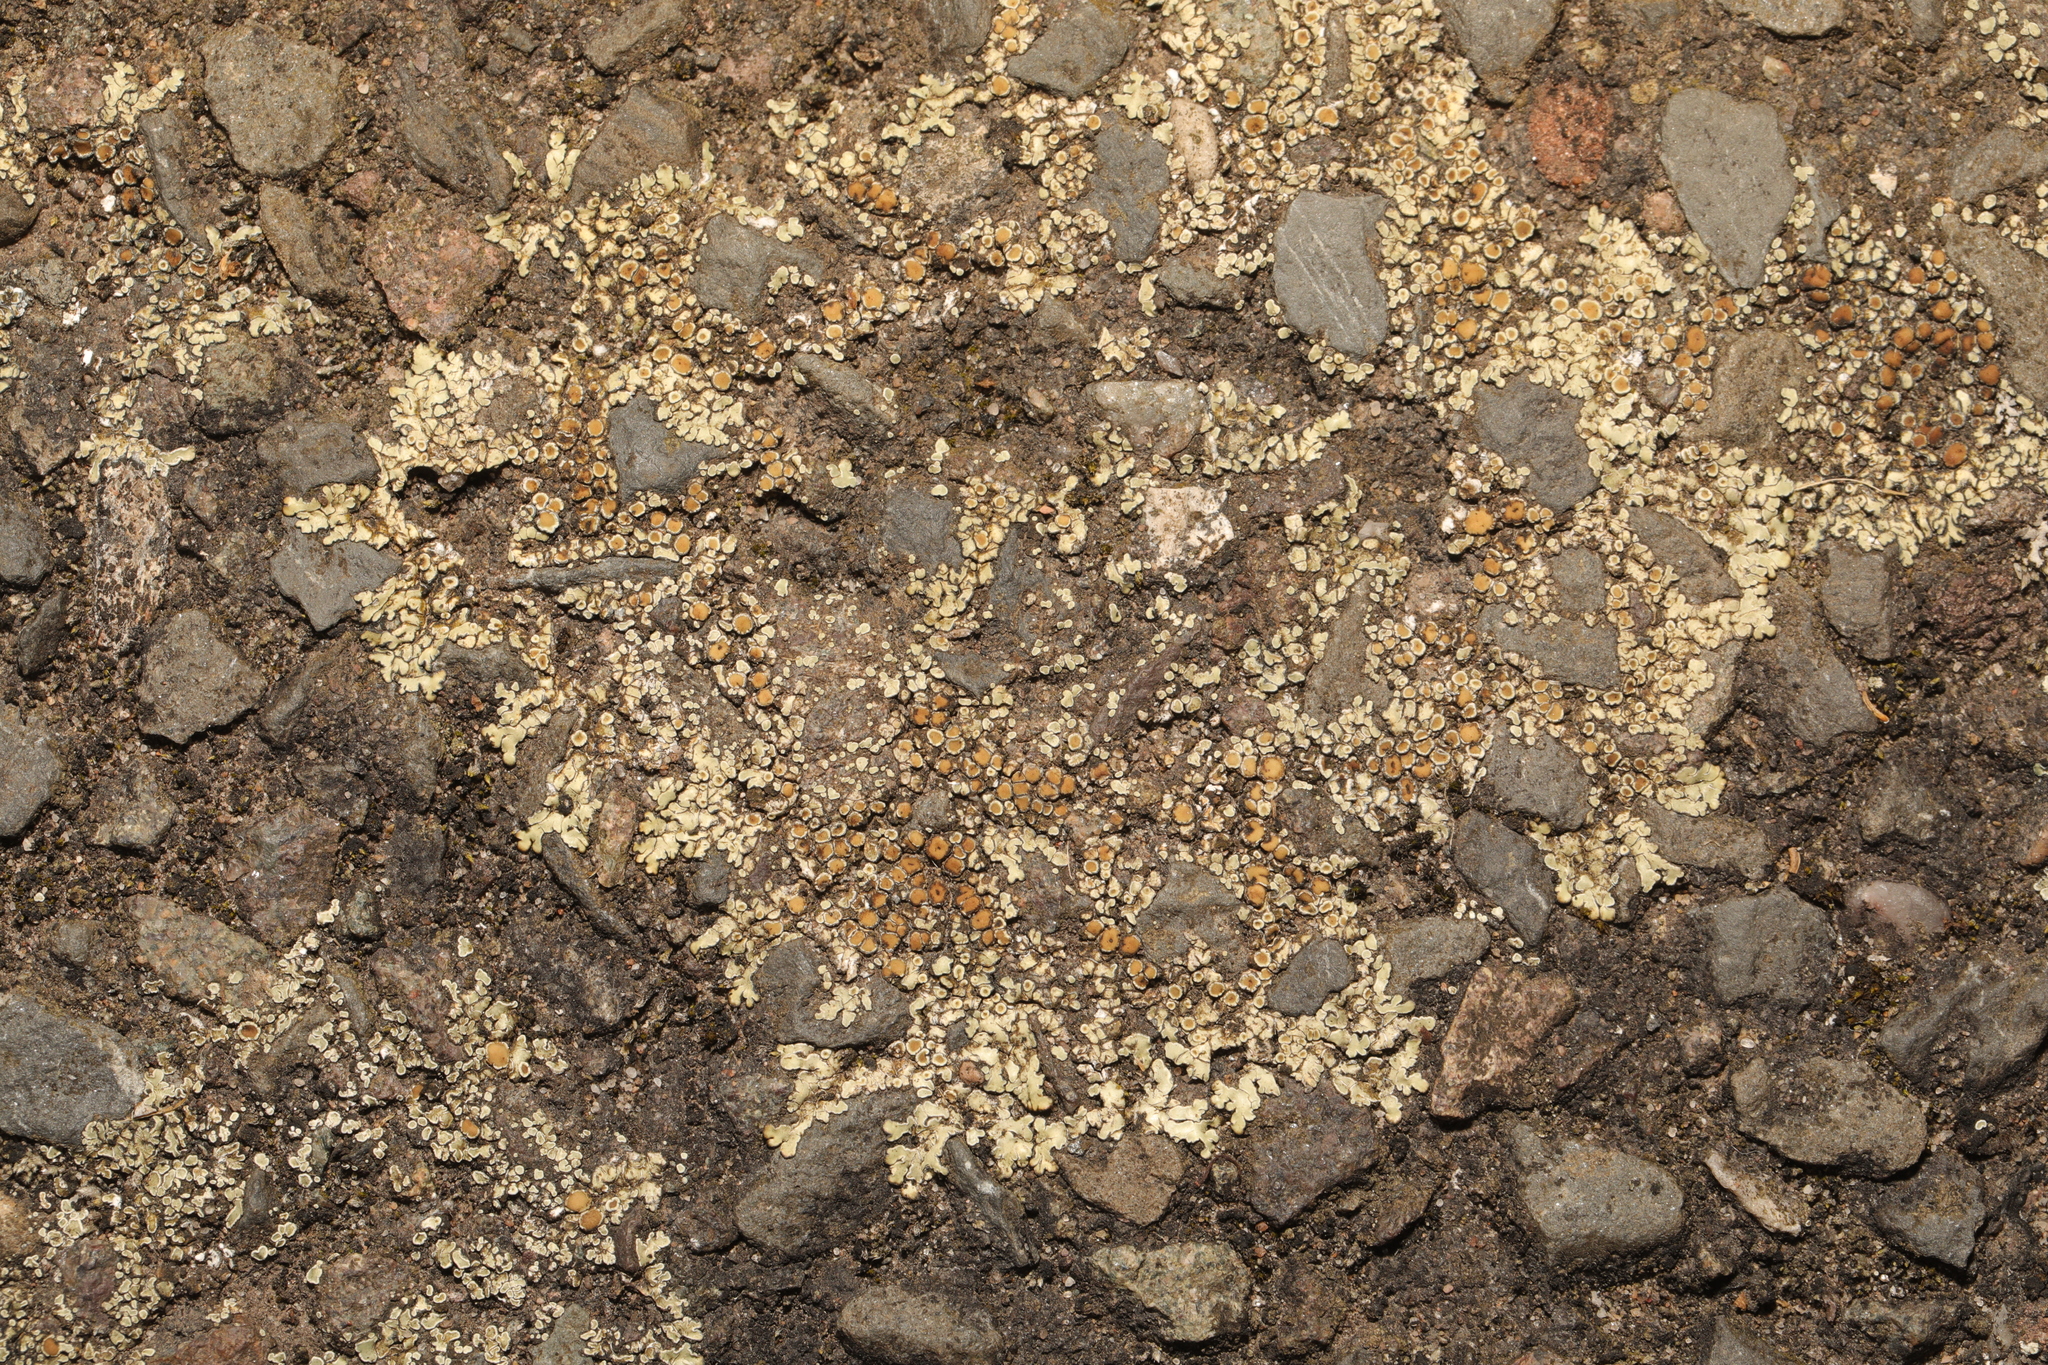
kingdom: Fungi
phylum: Ascomycota
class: Lecanoromycetes
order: Lecanorales
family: Lecanoraceae
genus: Protoparmeliopsis
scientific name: Protoparmeliopsis muralis
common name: Stonewall rim lichen
